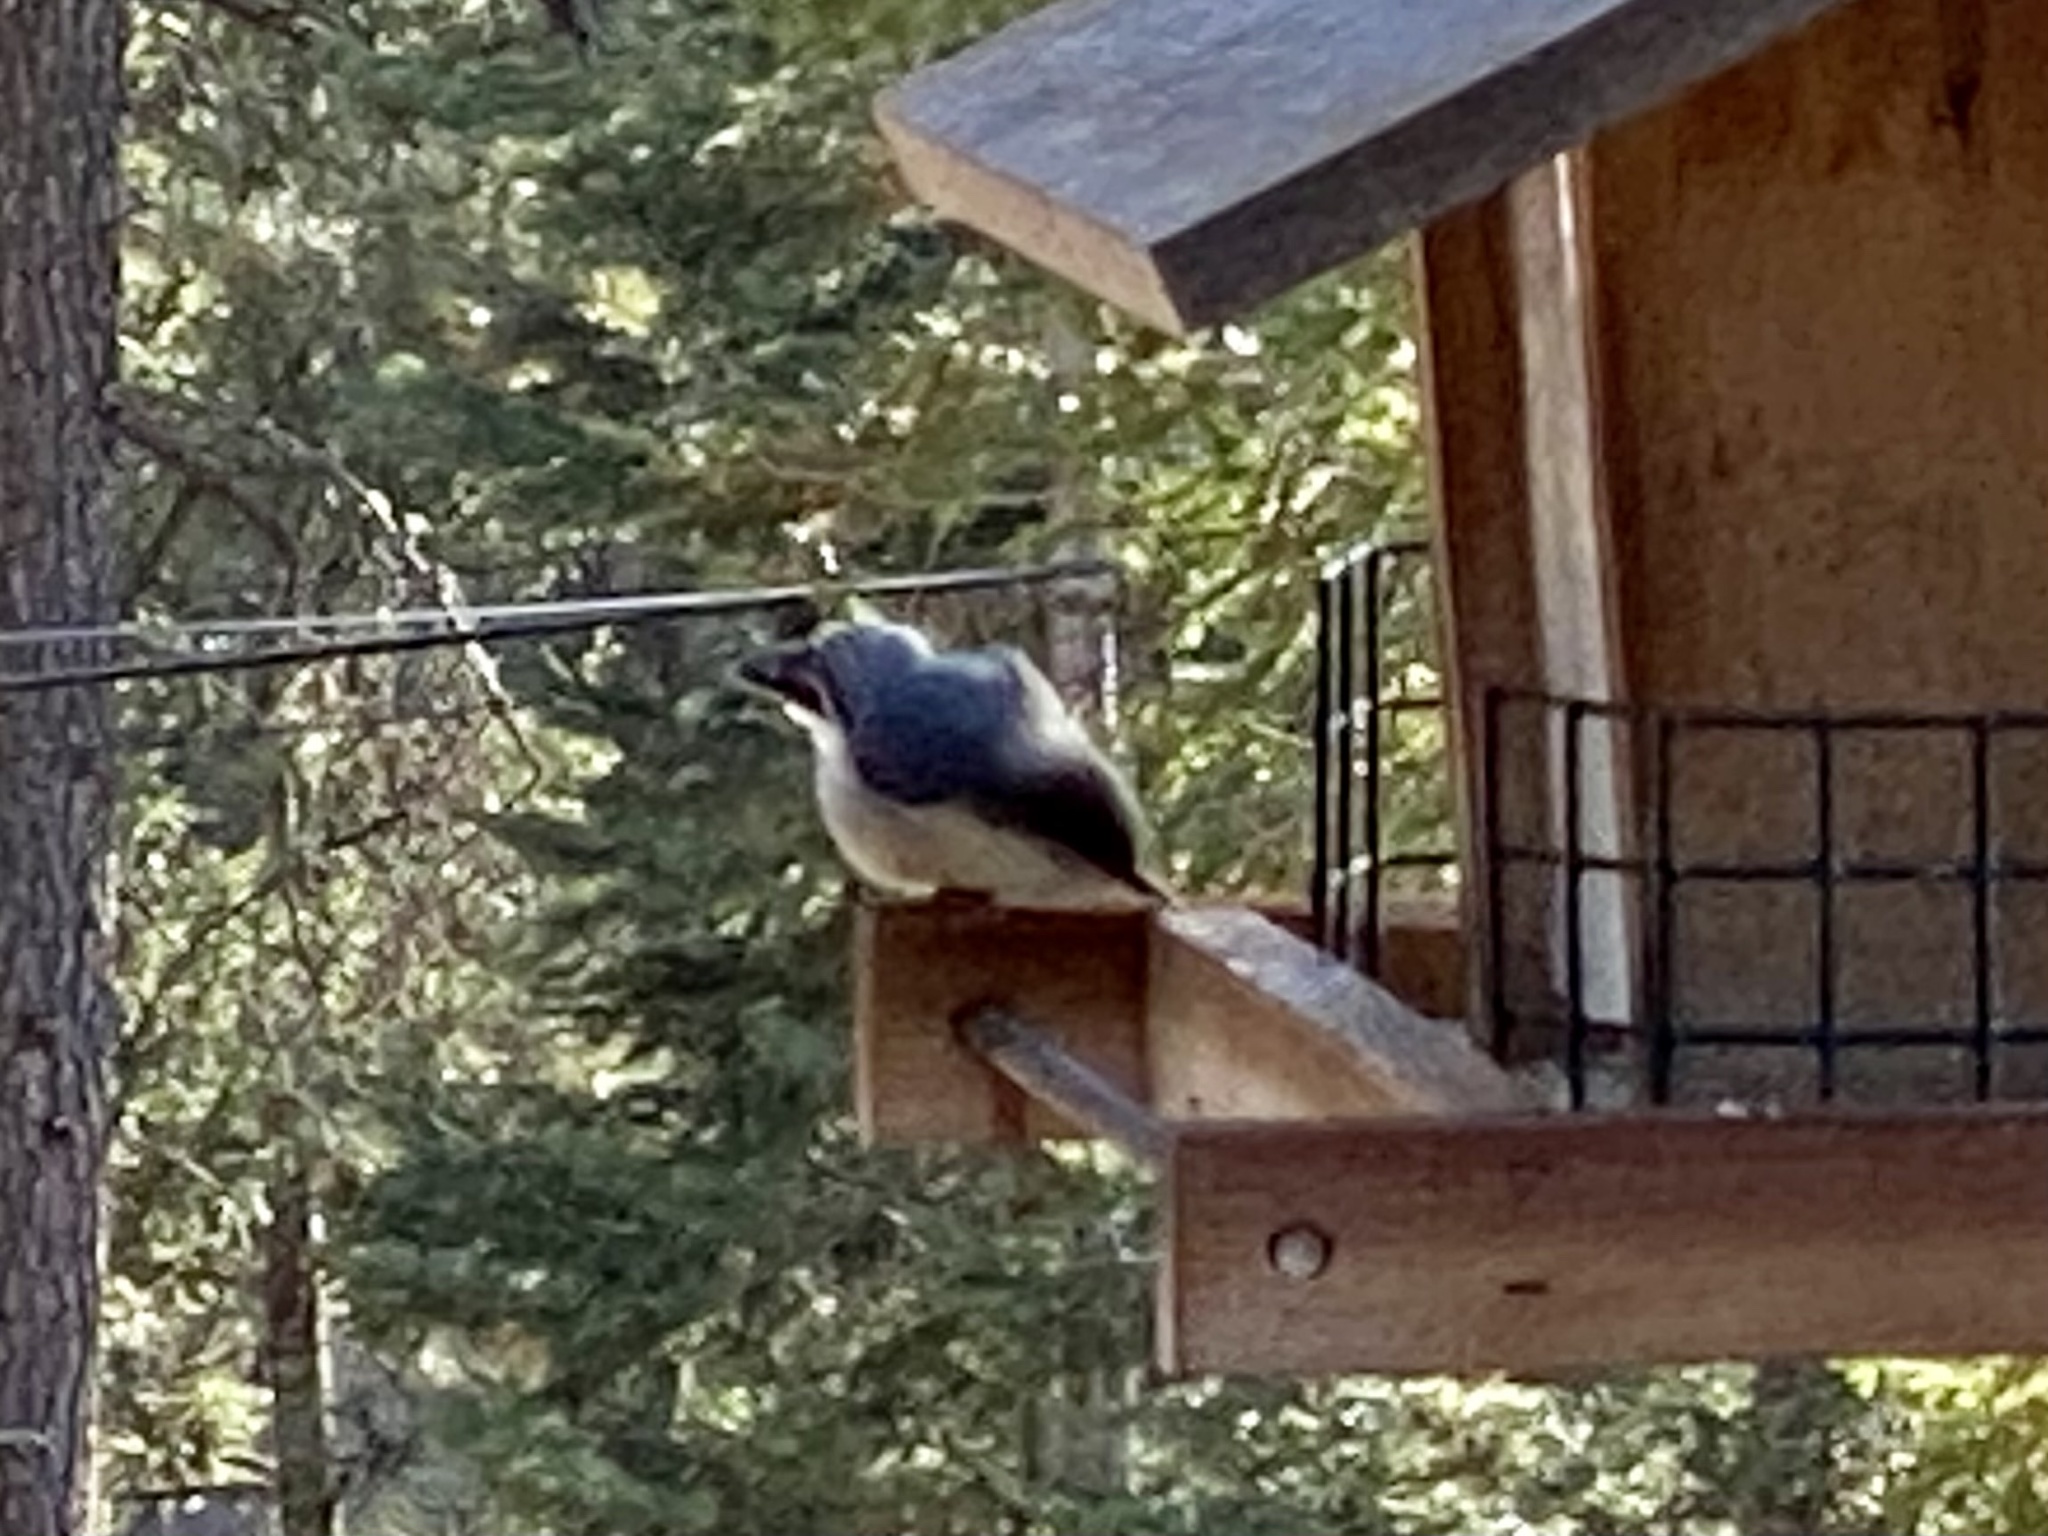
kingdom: Animalia
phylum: Chordata
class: Aves
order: Passeriformes
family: Sittidae
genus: Sitta
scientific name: Sitta pygmaea
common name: Pygmy nuthatch
